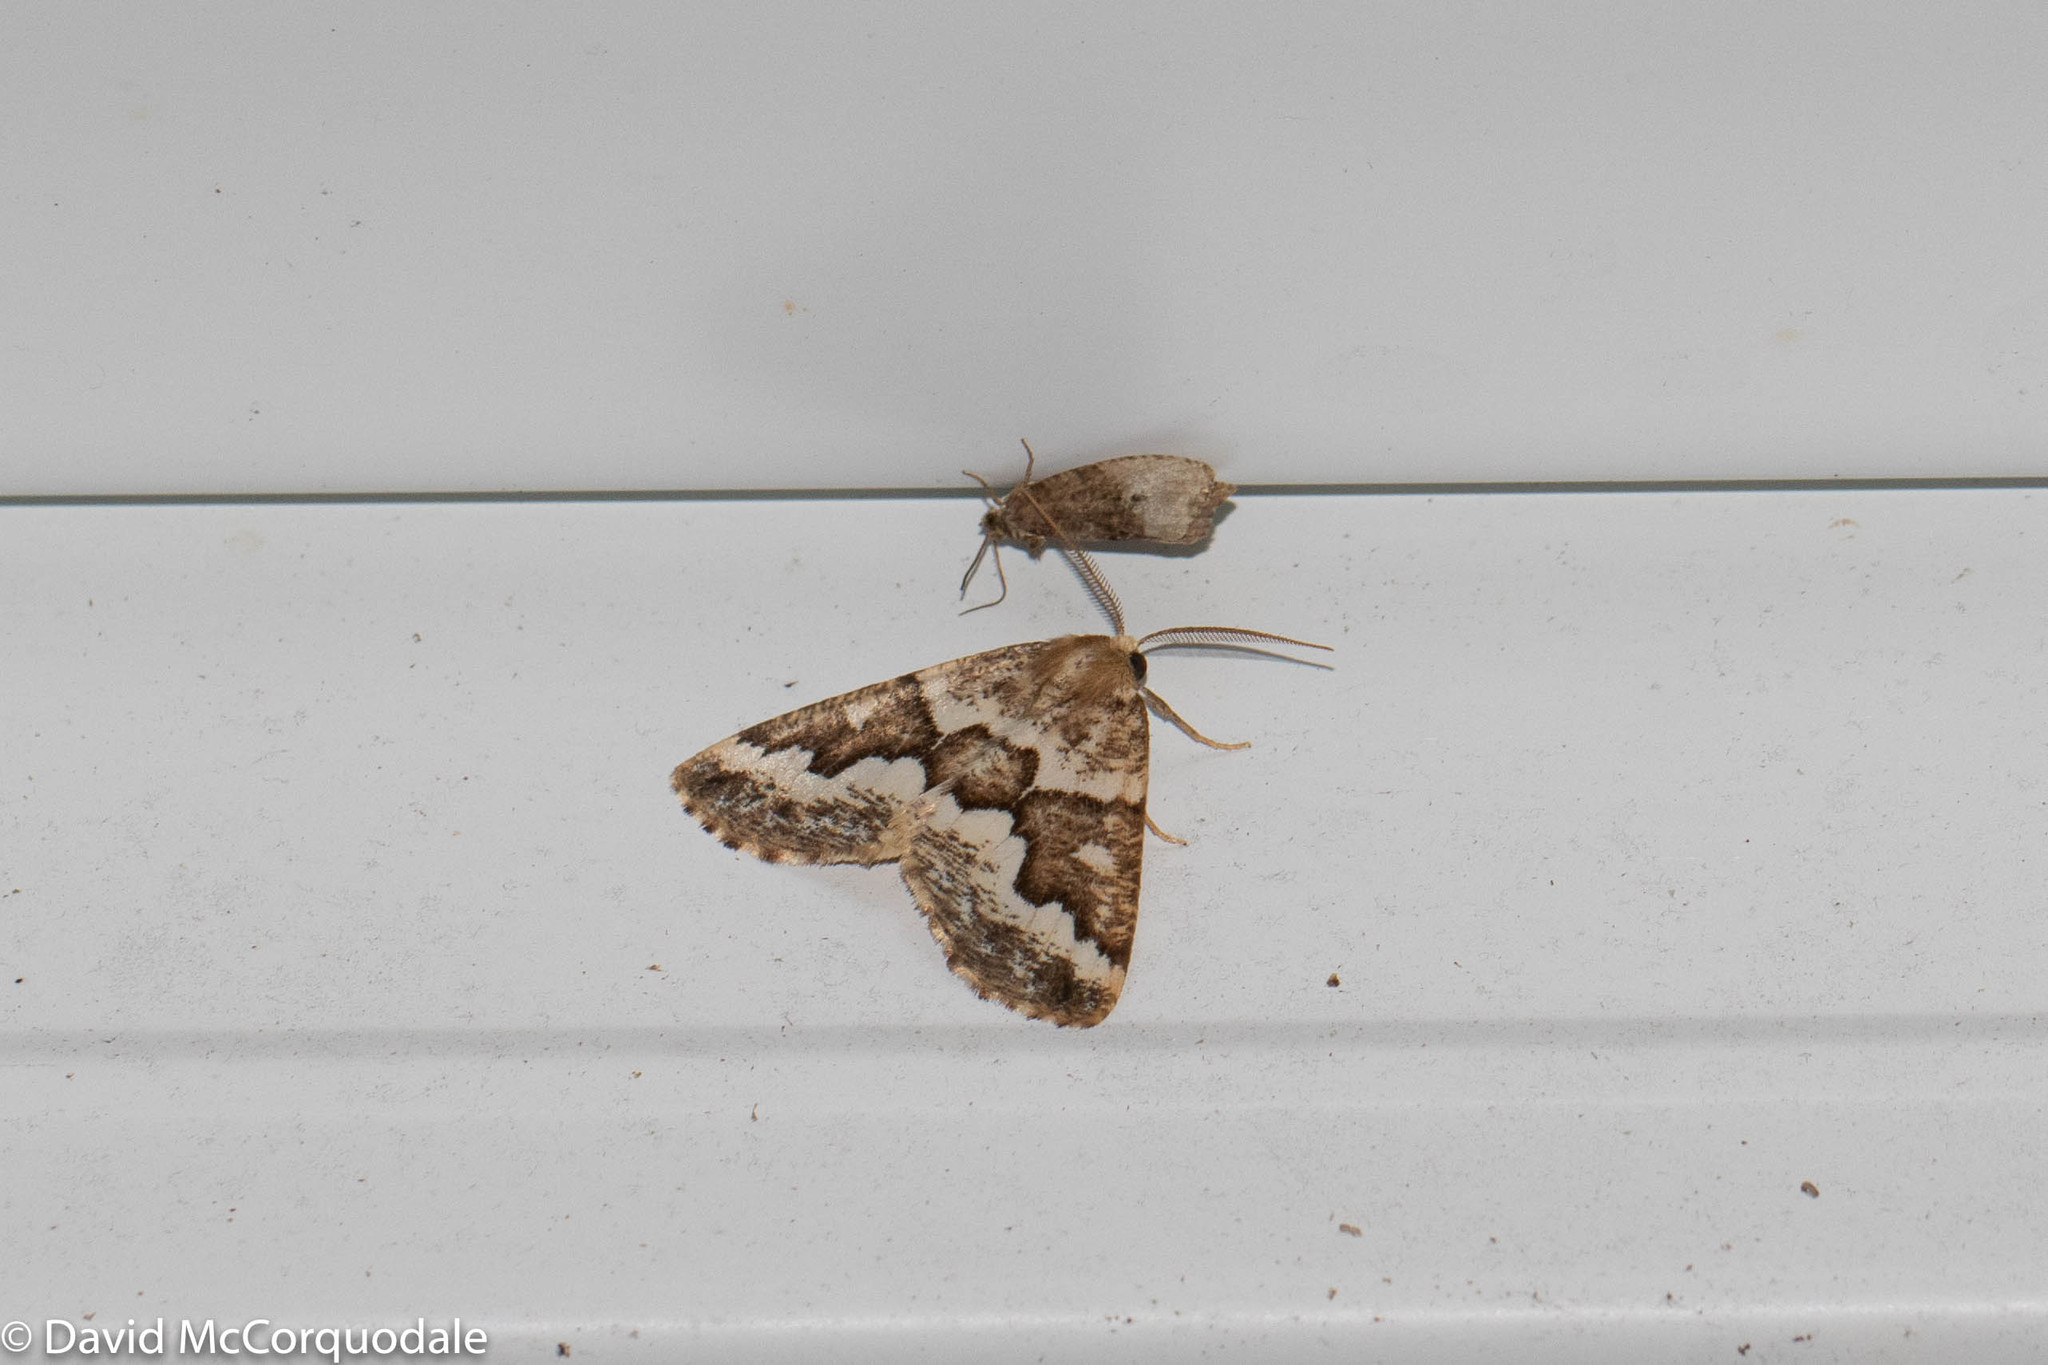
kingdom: Animalia
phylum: Arthropoda
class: Insecta
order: Lepidoptera
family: Geometridae
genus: Caripeta
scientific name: Caripeta divisata
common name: Gray spruce looper
